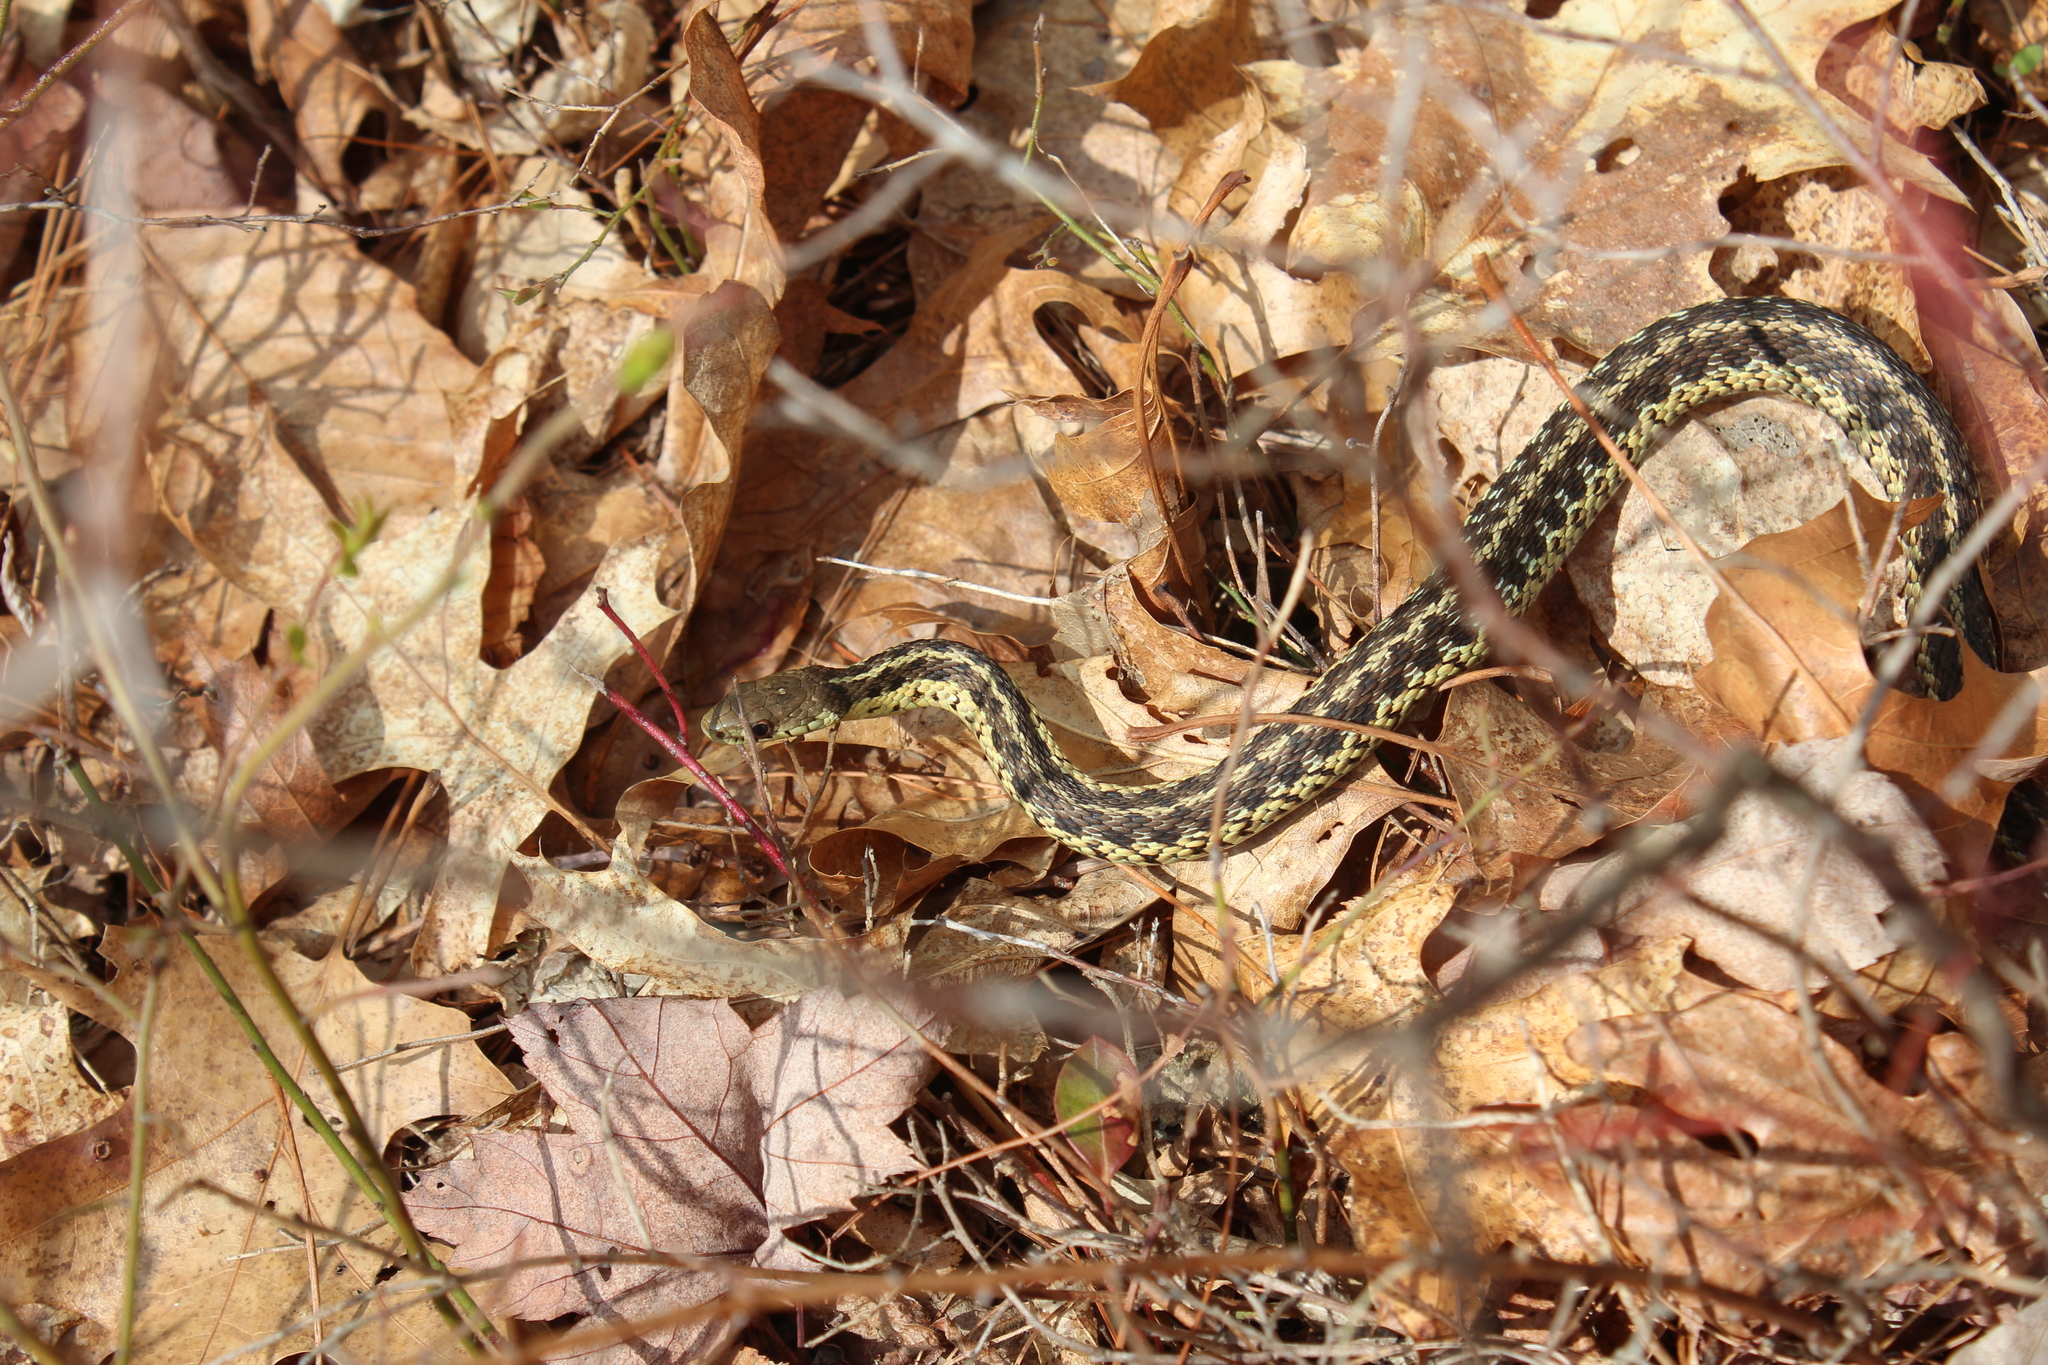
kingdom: Animalia
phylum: Chordata
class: Squamata
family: Colubridae
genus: Thamnophis
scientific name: Thamnophis sirtalis
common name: Common garter snake
